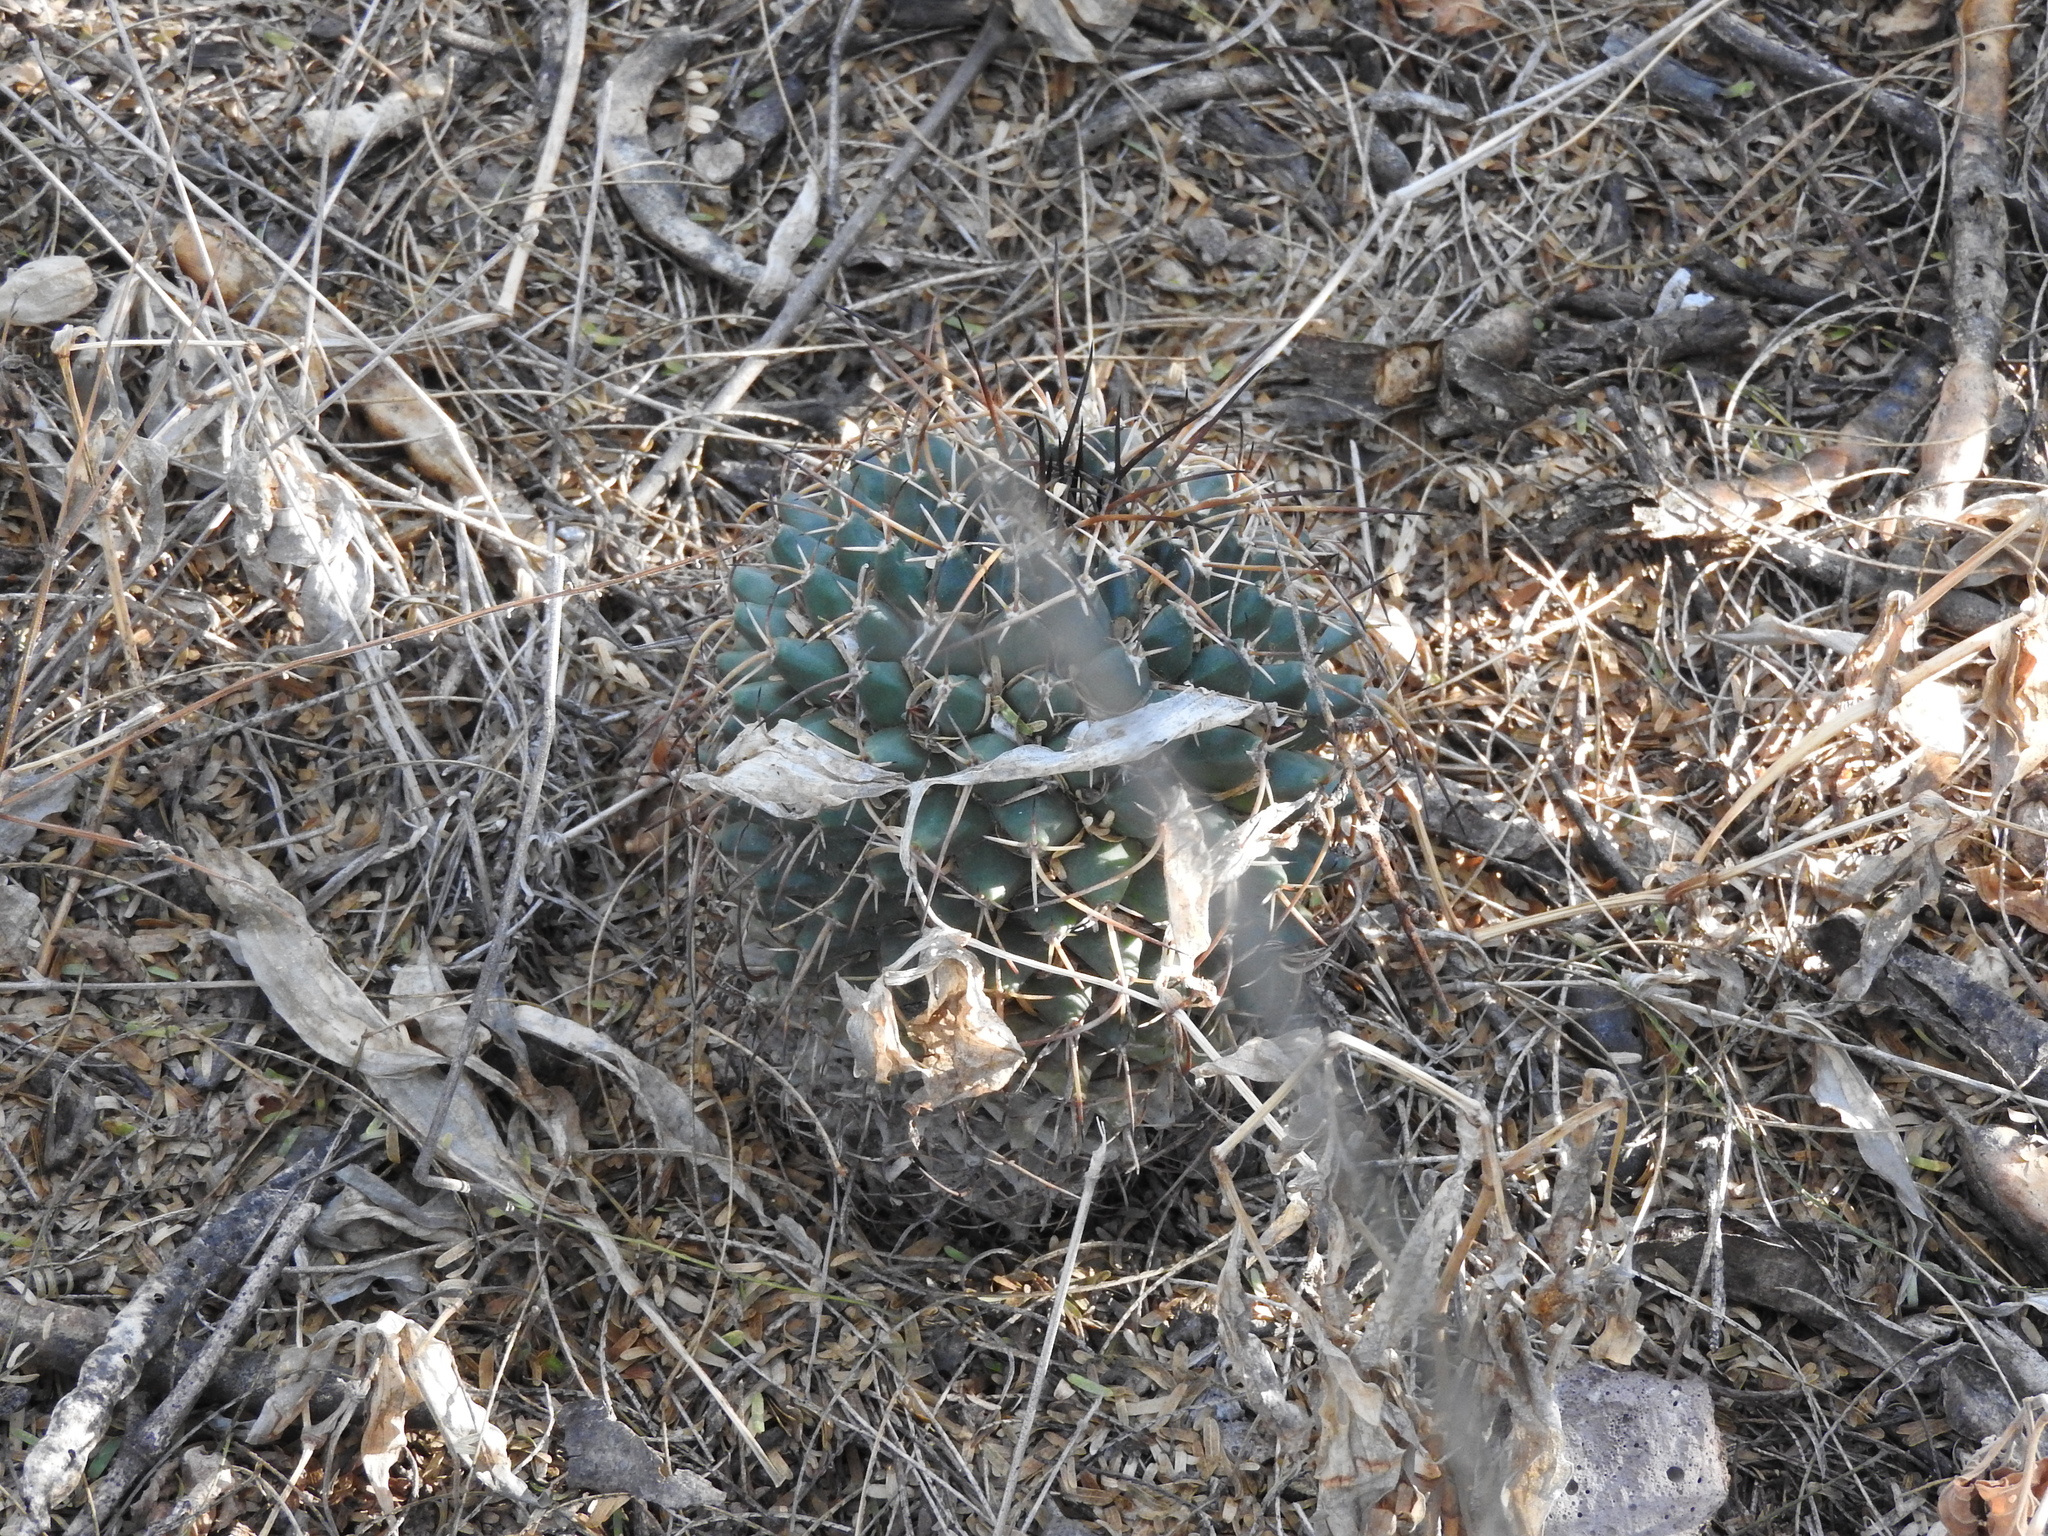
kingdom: Plantae
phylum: Tracheophyta
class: Magnoliopsida
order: Caryophyllales
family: Cactaceae
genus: Mammillaria
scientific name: Mammillaria magnimamma
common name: Mexican pincushion
